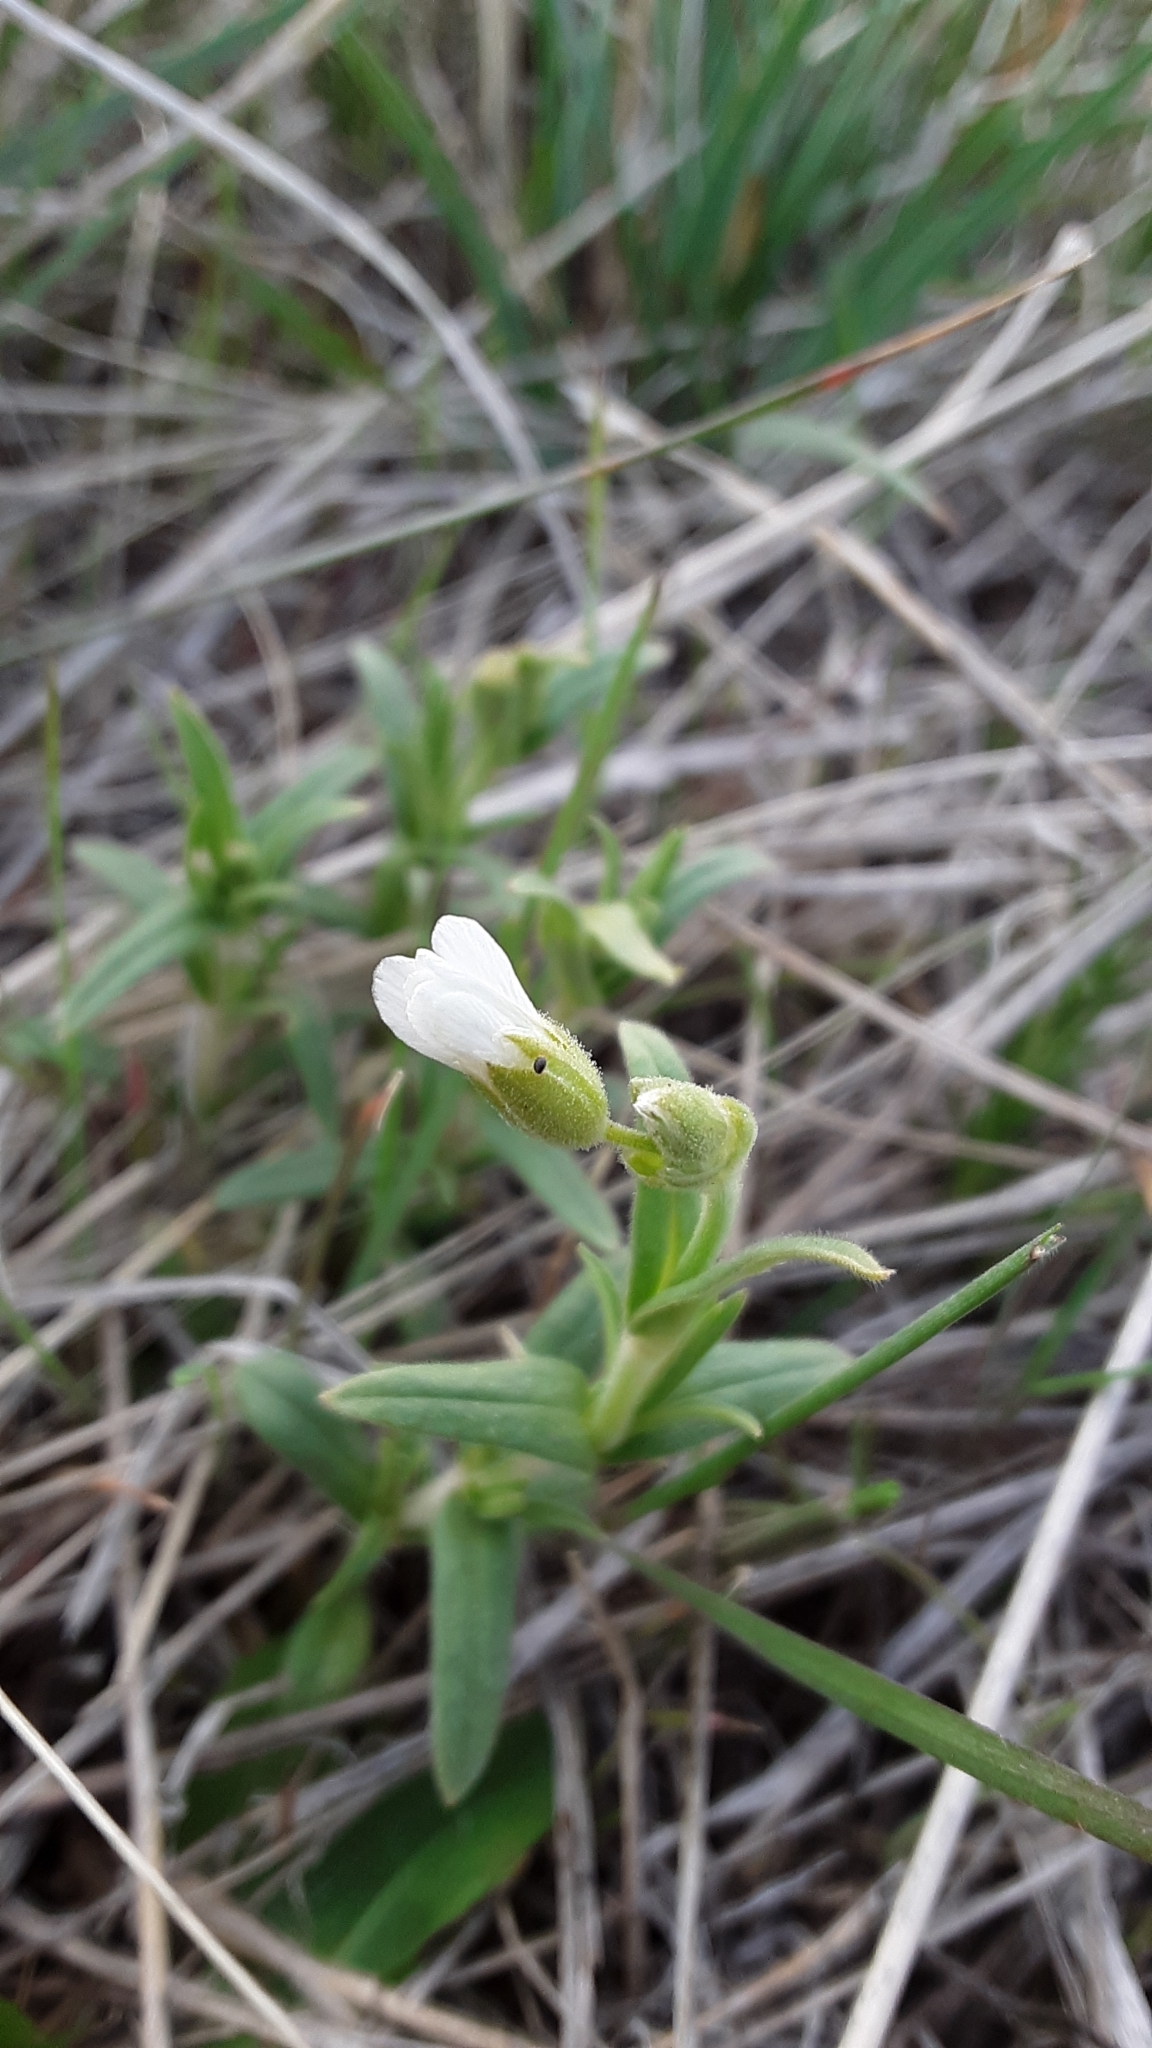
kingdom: Plantae
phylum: Tracheophyta
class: Magnoliopsida
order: Caryophyllales
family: Caryophyllaceae
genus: Cerastium
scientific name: Cerastium arvense
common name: Field mouse-ear
